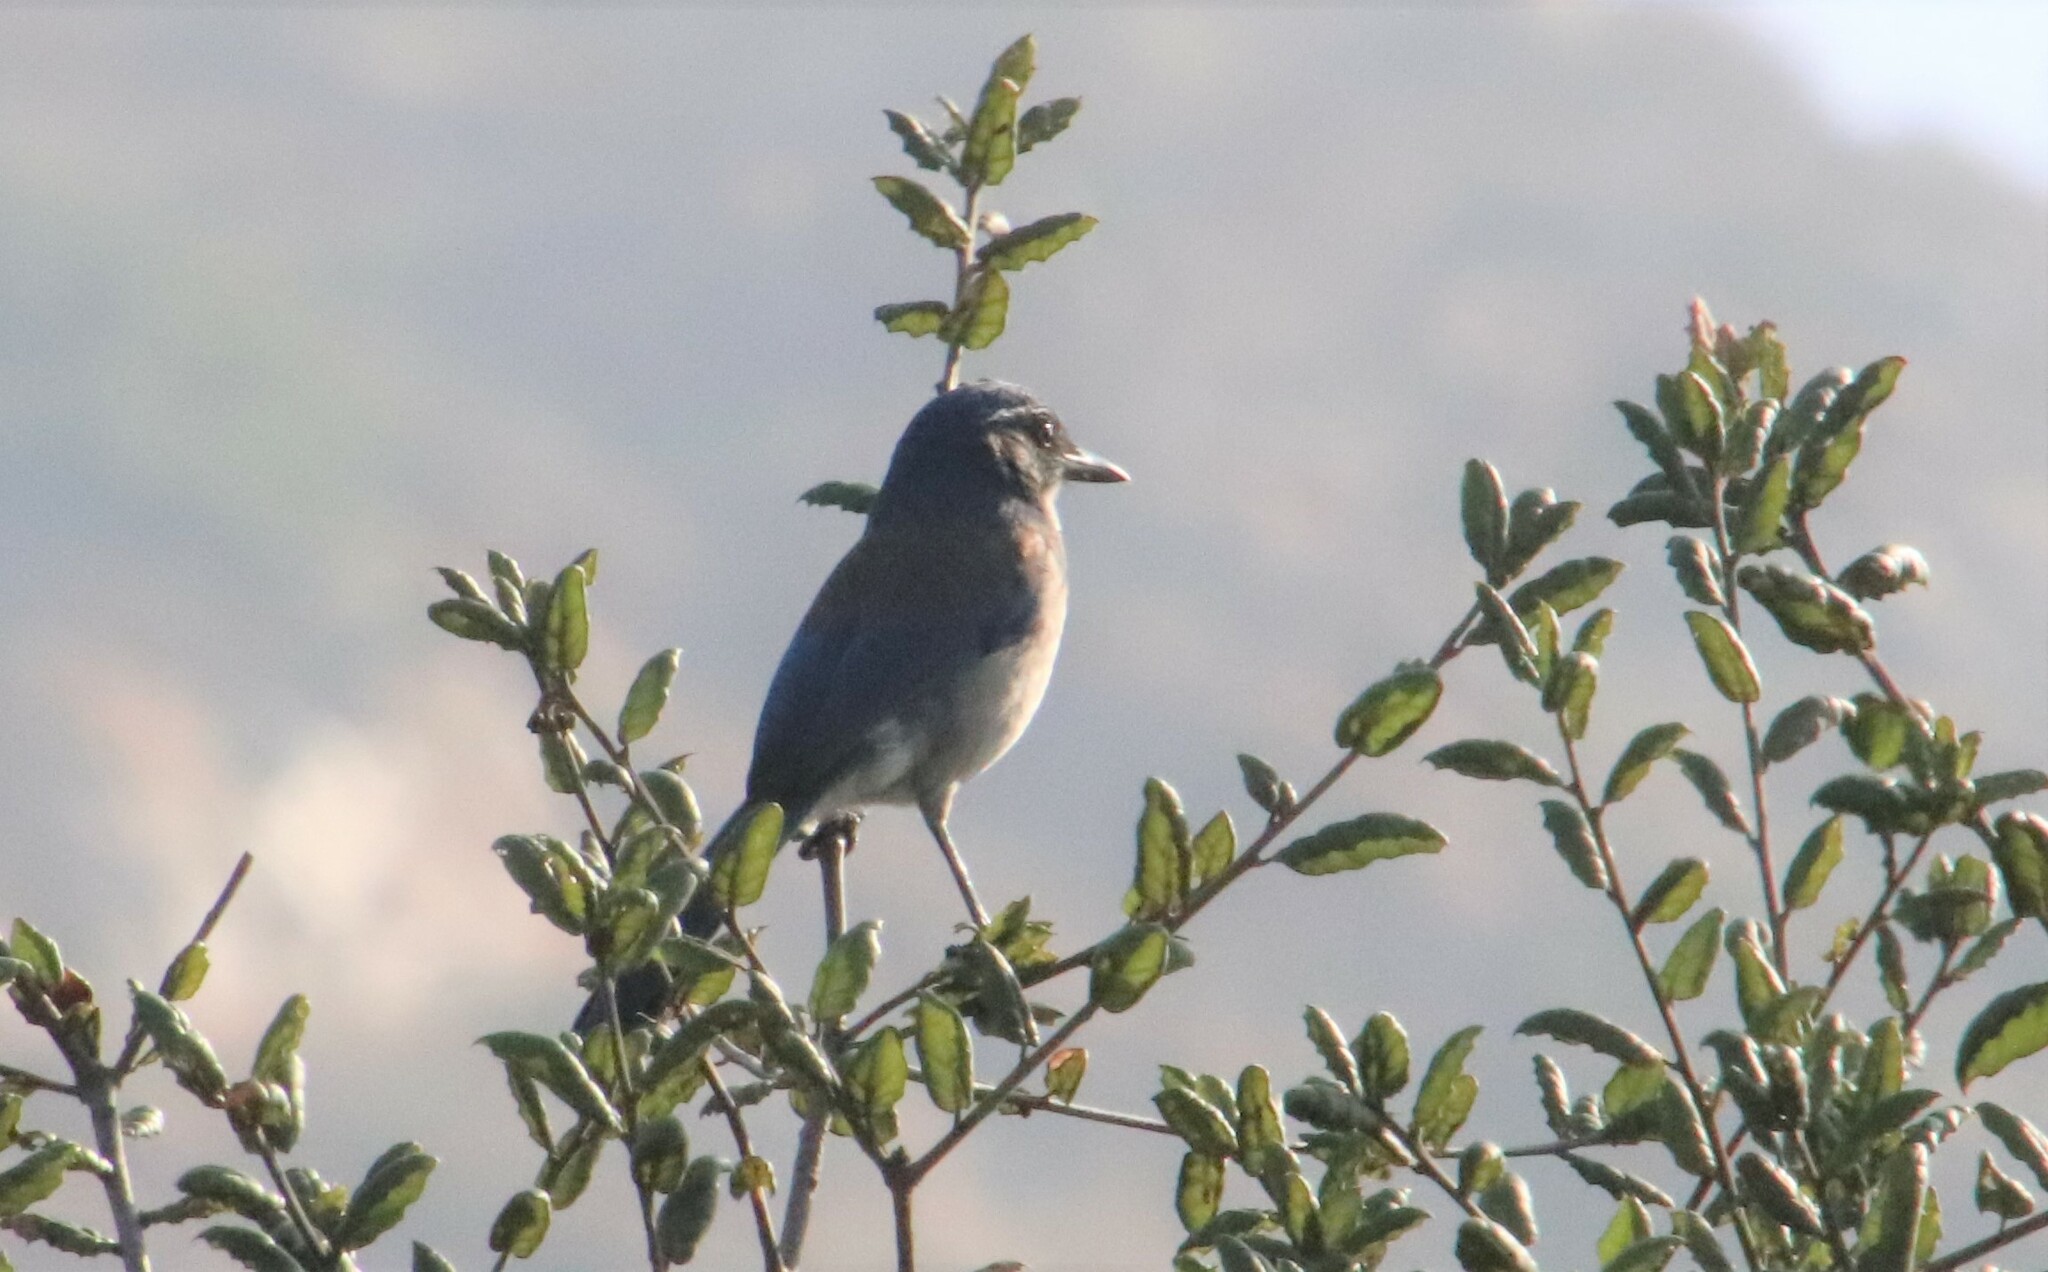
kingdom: Animalia
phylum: Chordata
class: Aves
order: Passeriformes
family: Corvidae
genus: Aphelocoma
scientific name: Aphelocoma californica
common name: California scrub-jay
